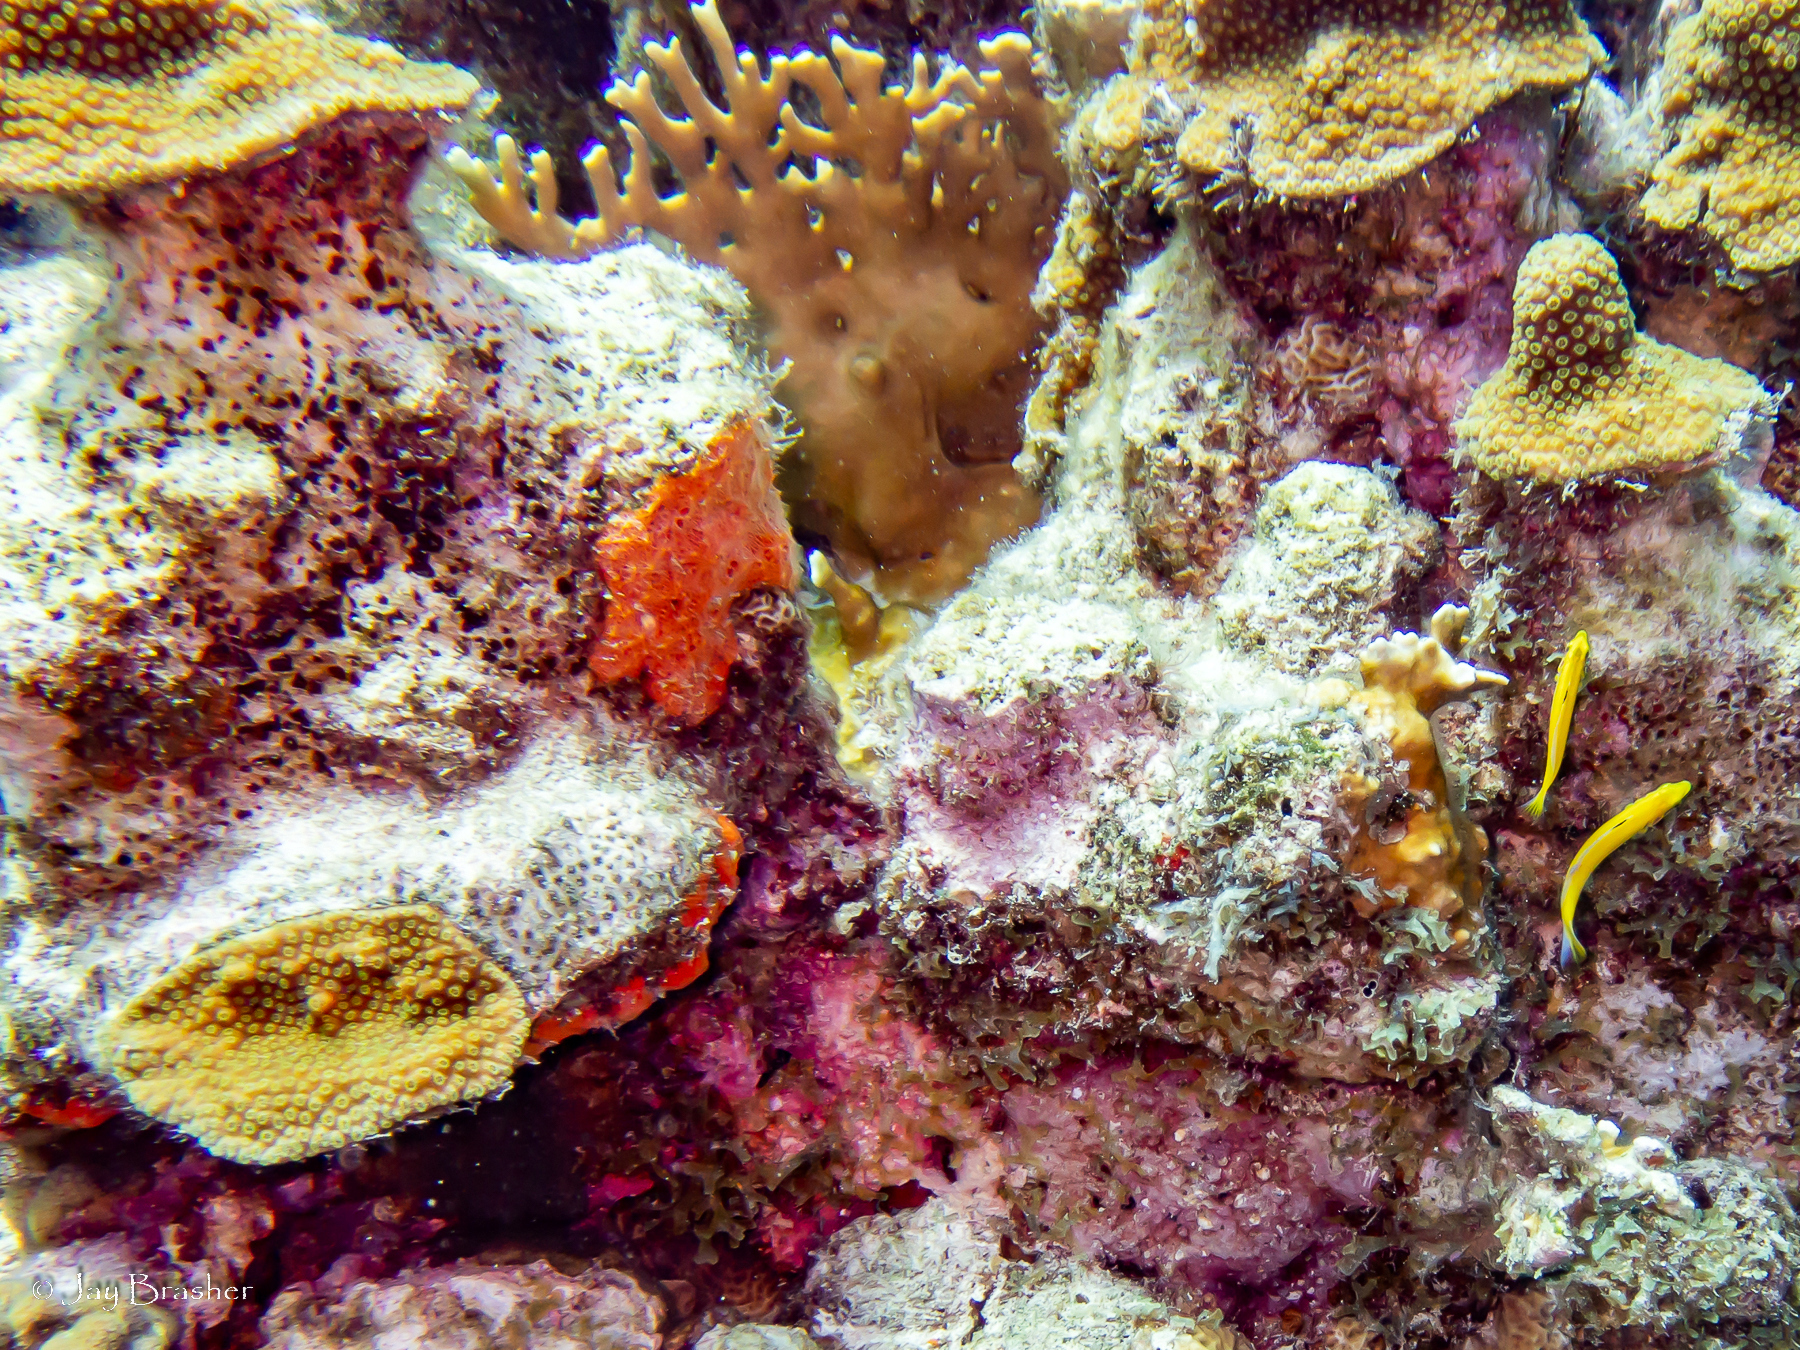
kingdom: Animalia
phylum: Chordata
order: Perciformes
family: Labridae
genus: Thalassoma
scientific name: Thalassoma bifasciatum
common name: Bluehead wrasse
